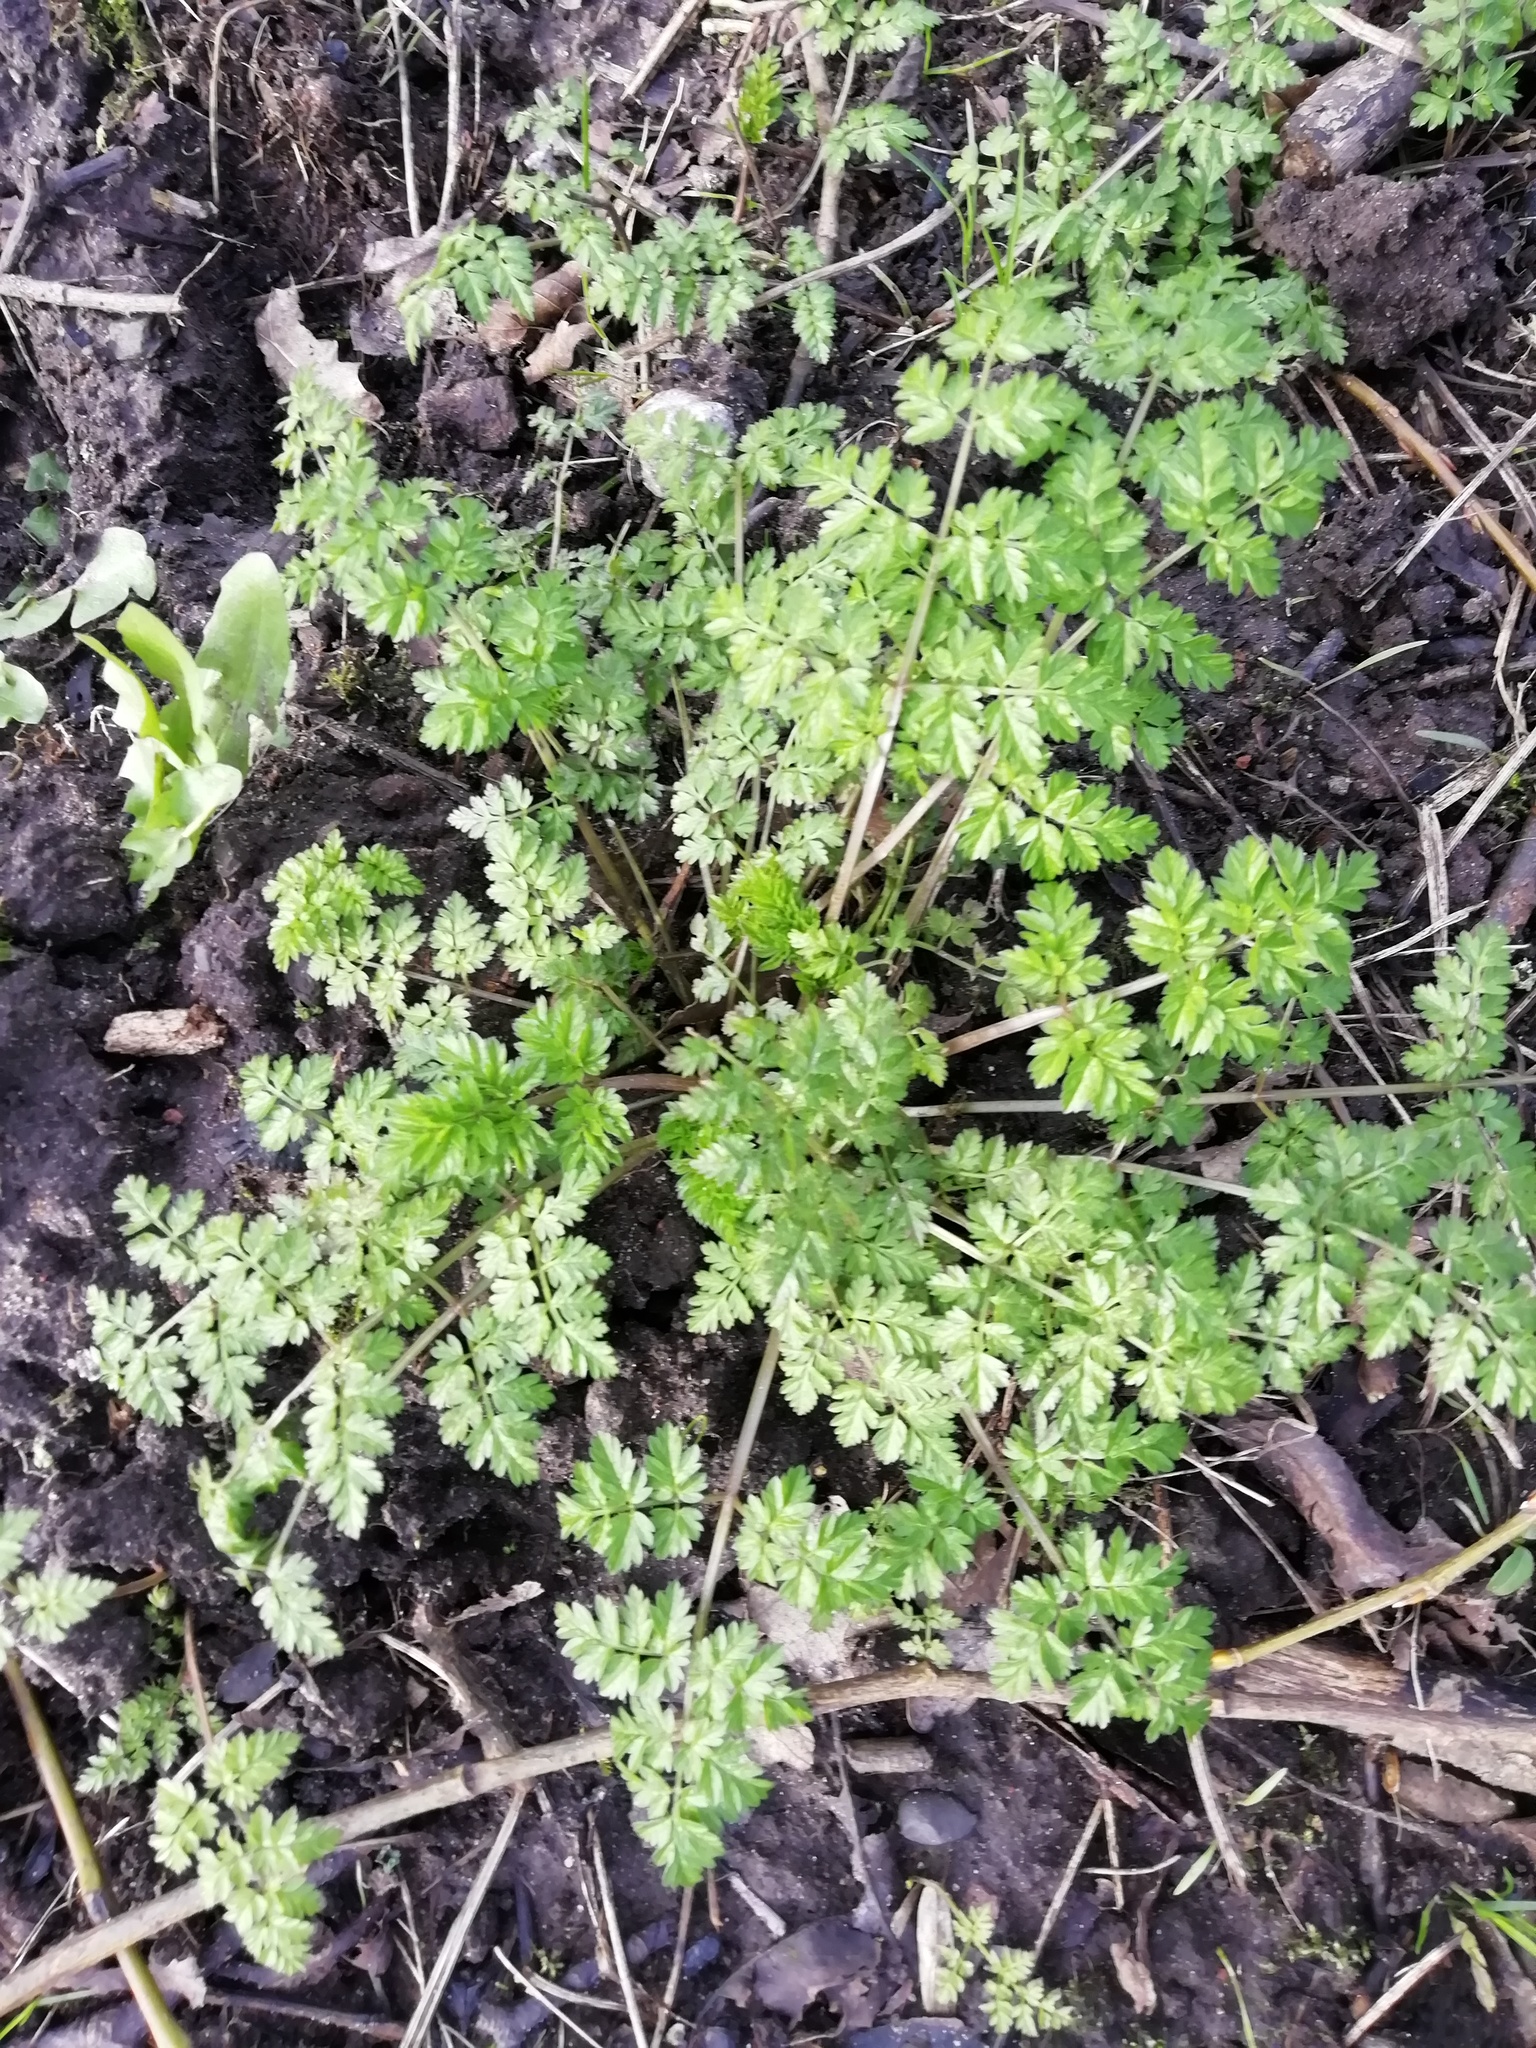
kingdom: Plantae
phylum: Tracheophyta
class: Magnoliopsida
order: Apiales
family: Apiaceae
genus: Anthriscus
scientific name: Anthriscus sylvestris
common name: Cow parsley
